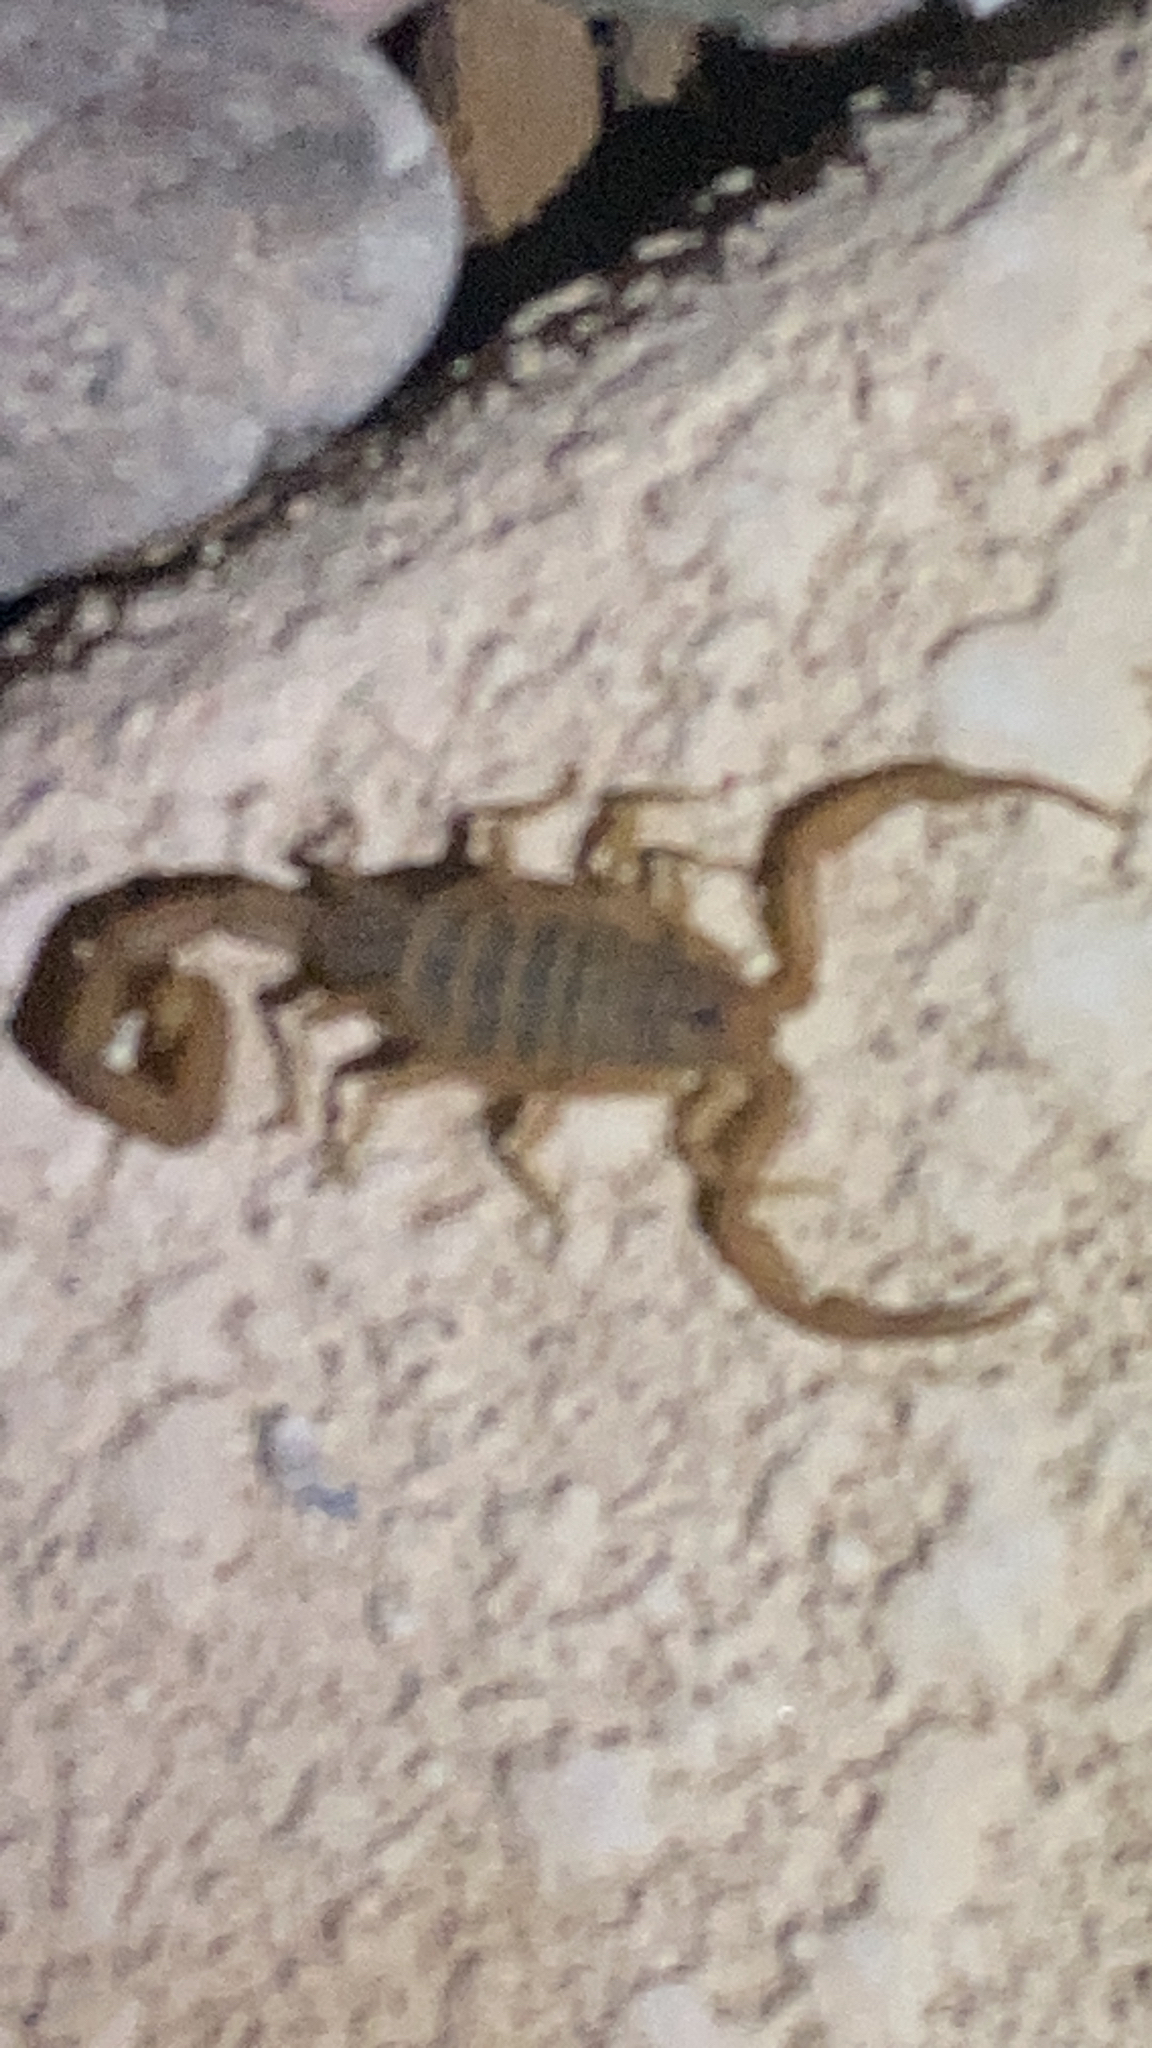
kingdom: Animalia
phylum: Arthropoda
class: Arachnida
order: Scorpiones
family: Buthidae
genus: Centruroides
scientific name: Centruroides sculpturatus
